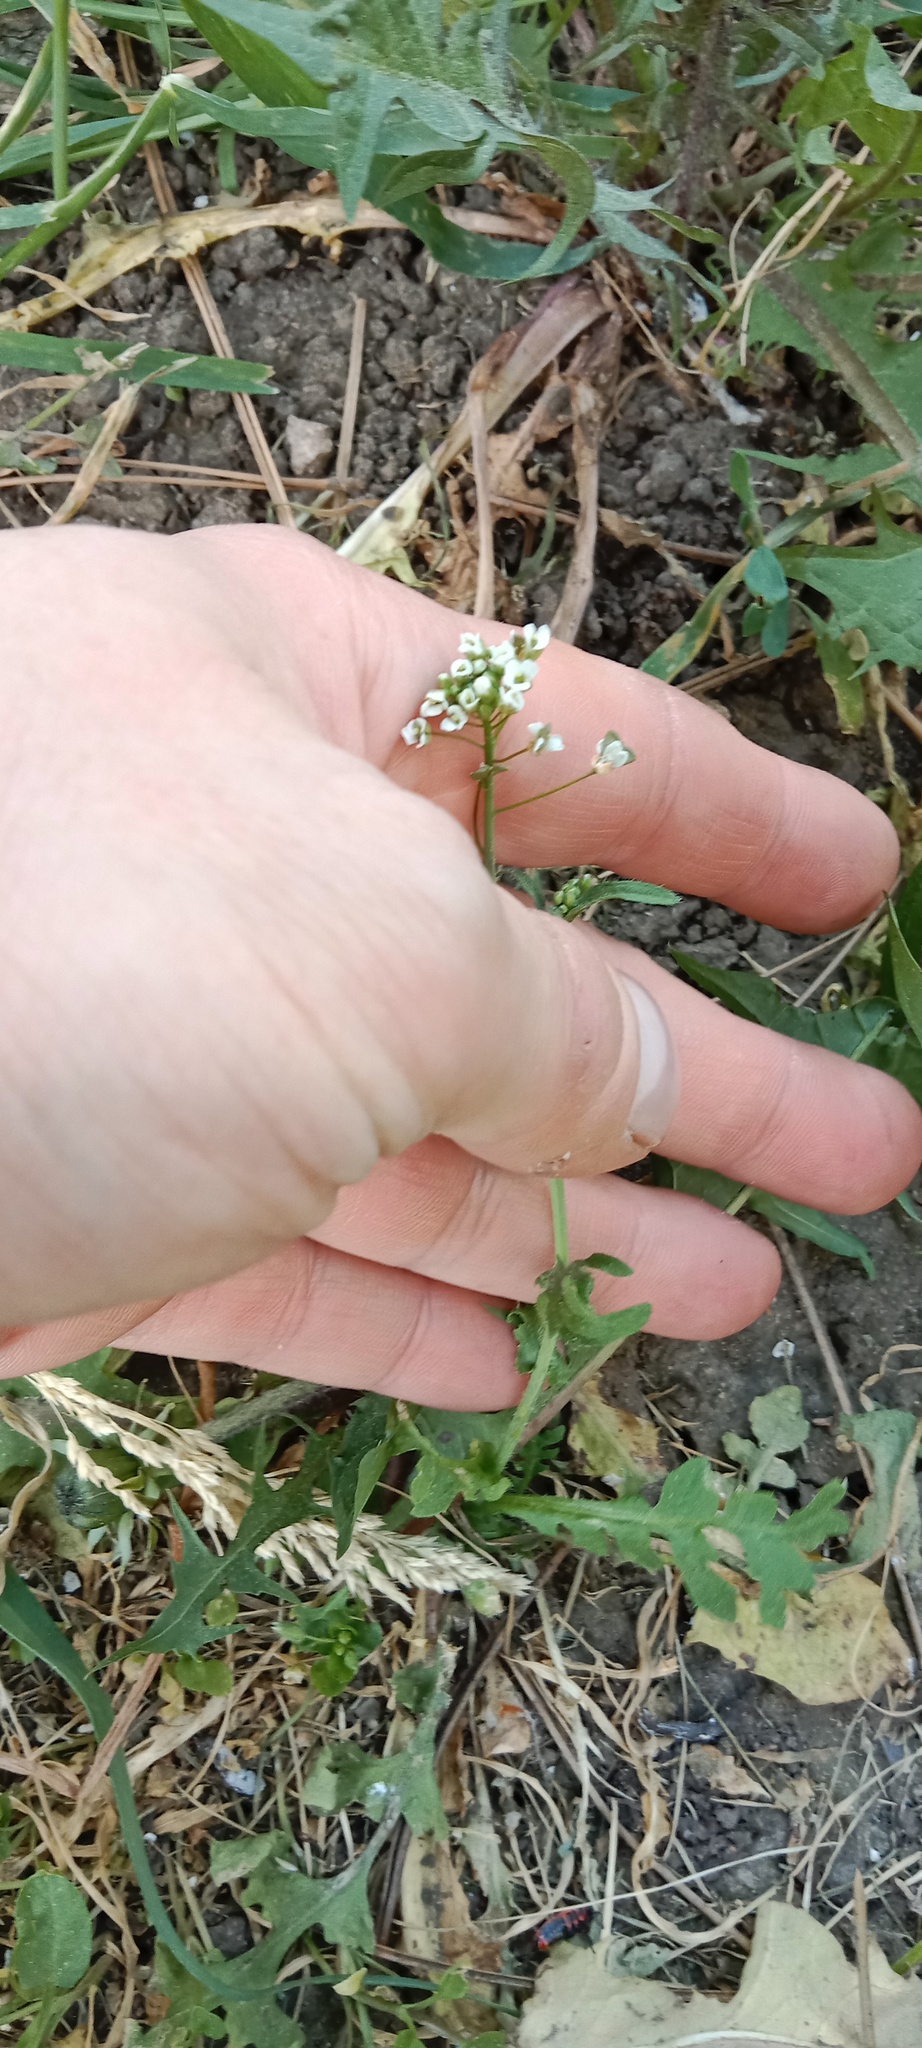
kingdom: Plantae
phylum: Tracheophyta
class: Magnoliopsida
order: Brassicales
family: Brassicaceae
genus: Capsella
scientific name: Capsella bursa-pastoris
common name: Shepherd's purse
